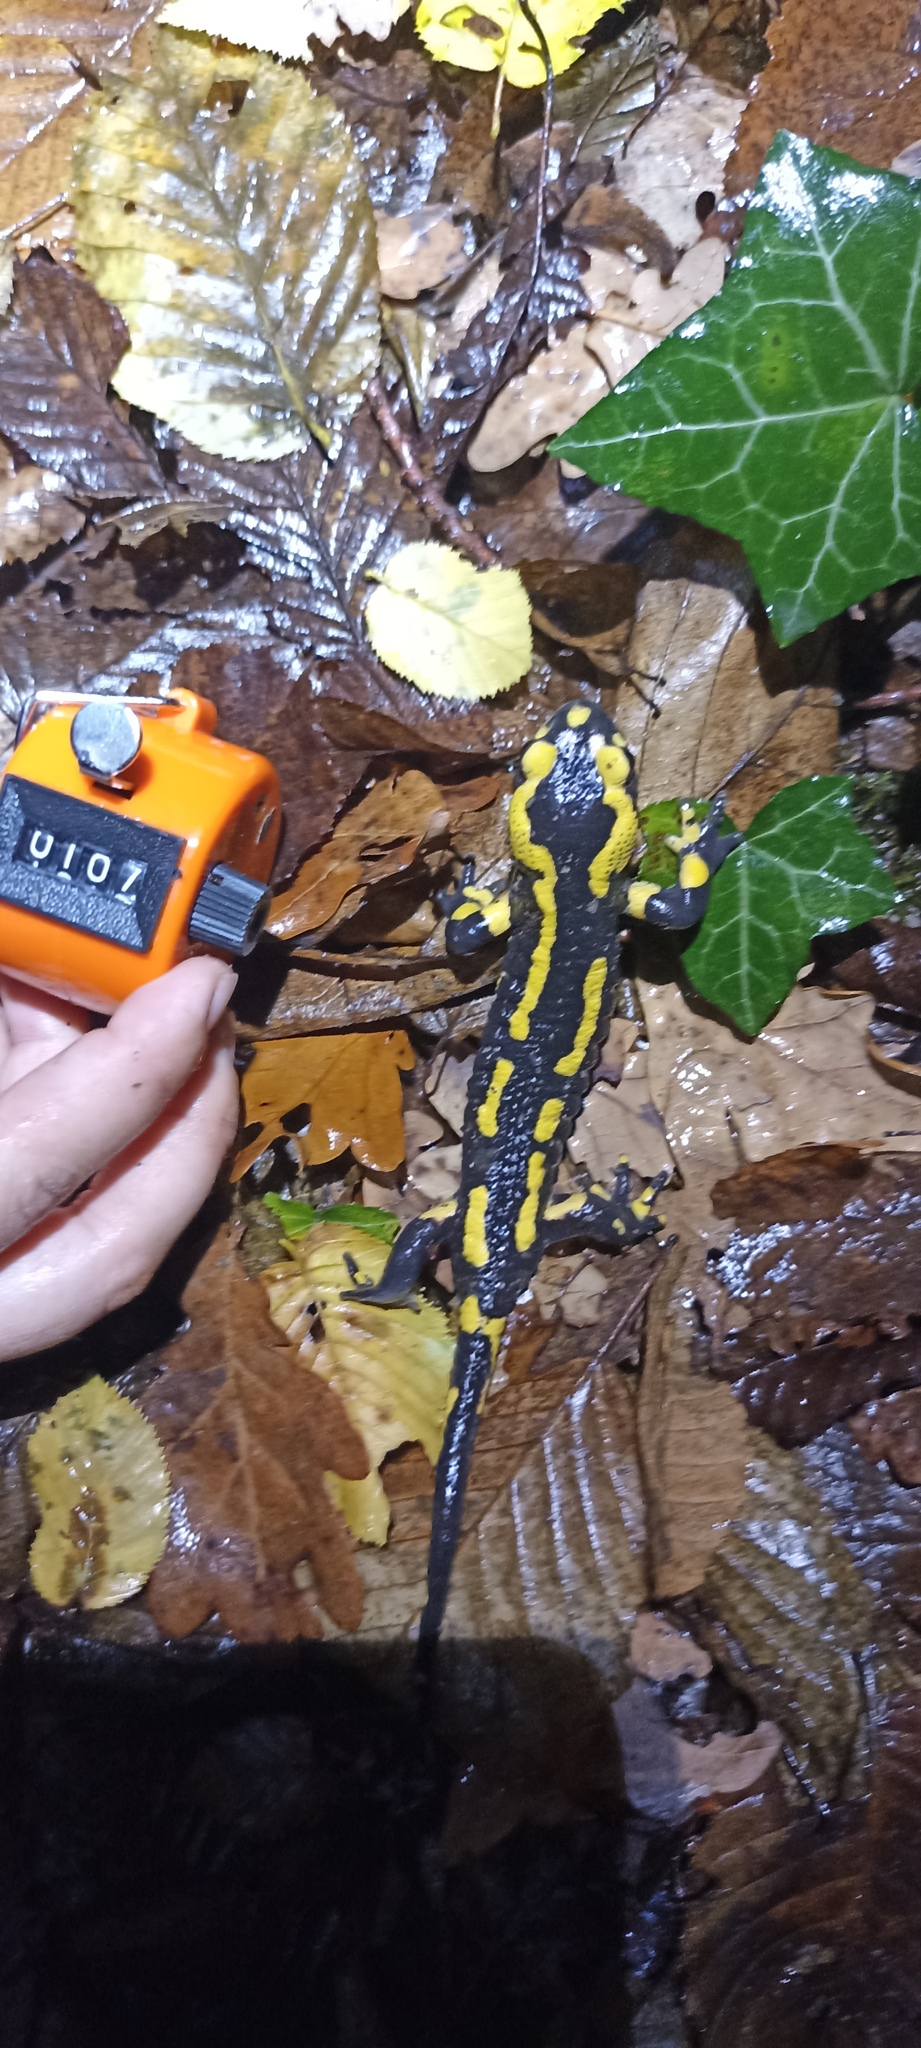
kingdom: Animalia
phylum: Chordata
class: Amphibia
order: Caudata
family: Salamandridae
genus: Salamandra
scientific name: Salamandra salamandra
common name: Fire salamander
